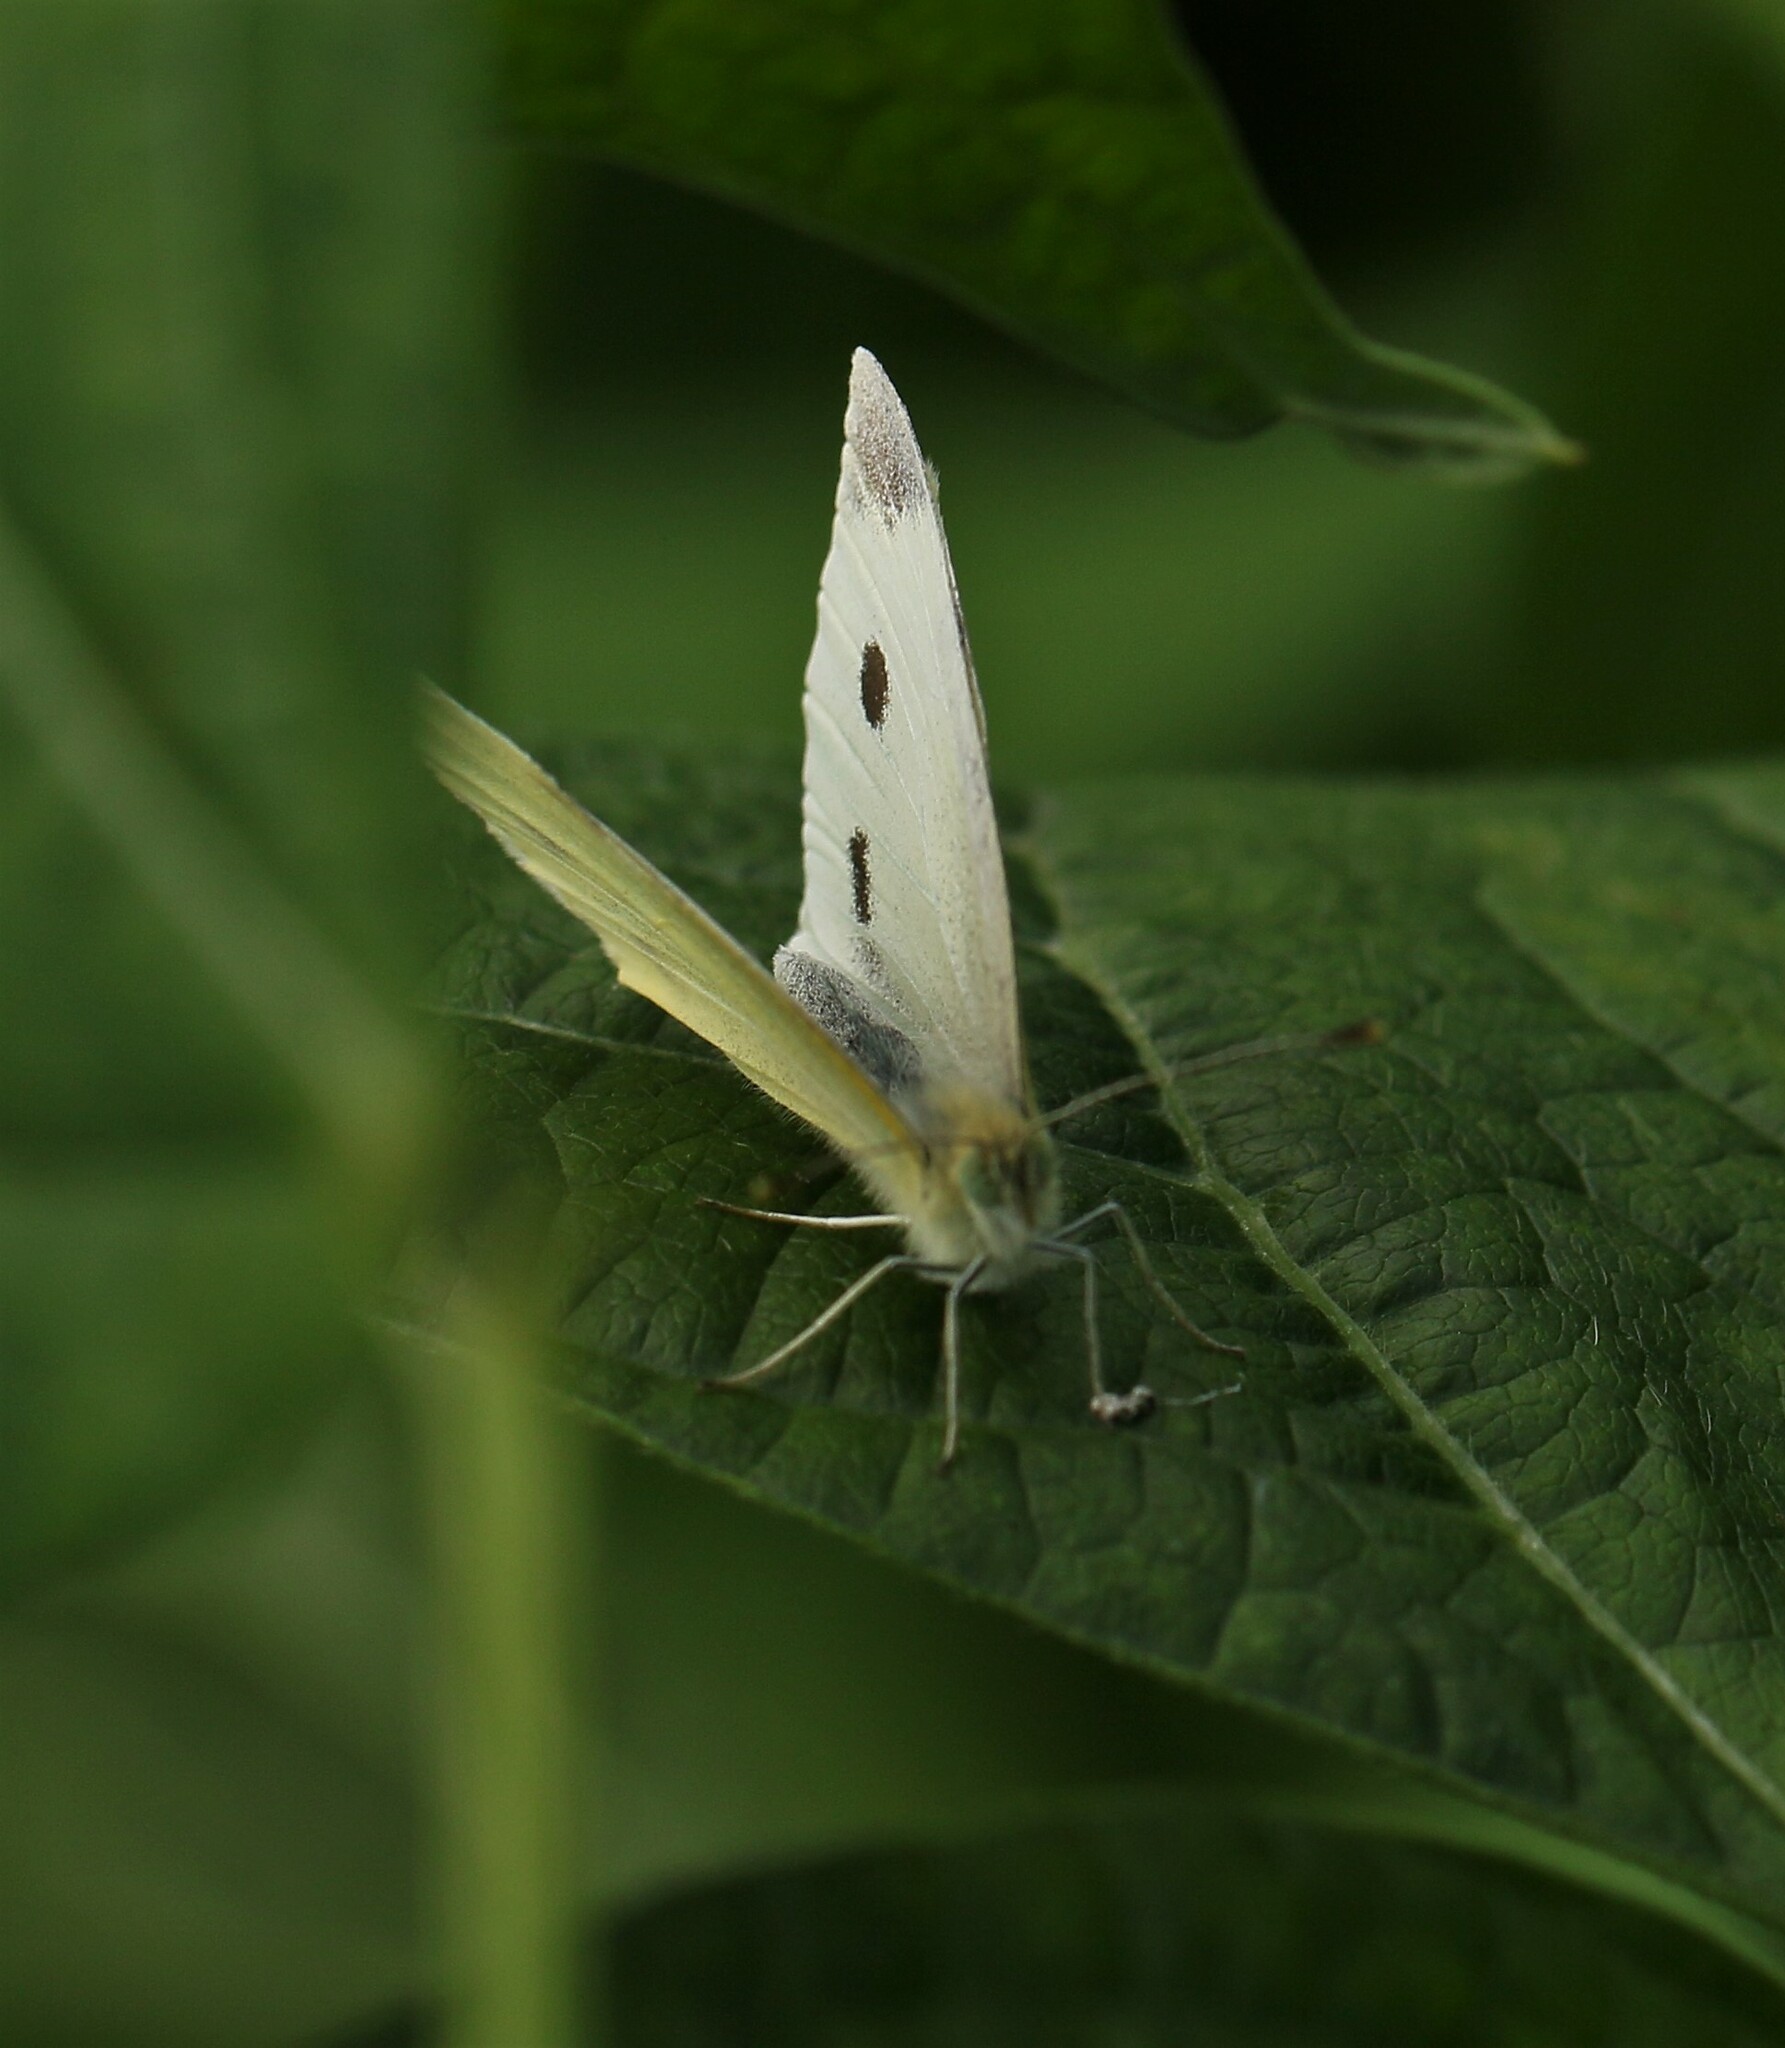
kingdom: Animalia
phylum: Arthropoda
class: Insecta
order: Lepidoptera
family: Pieridae
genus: Pieris
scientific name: Pieris rapae
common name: Small white
